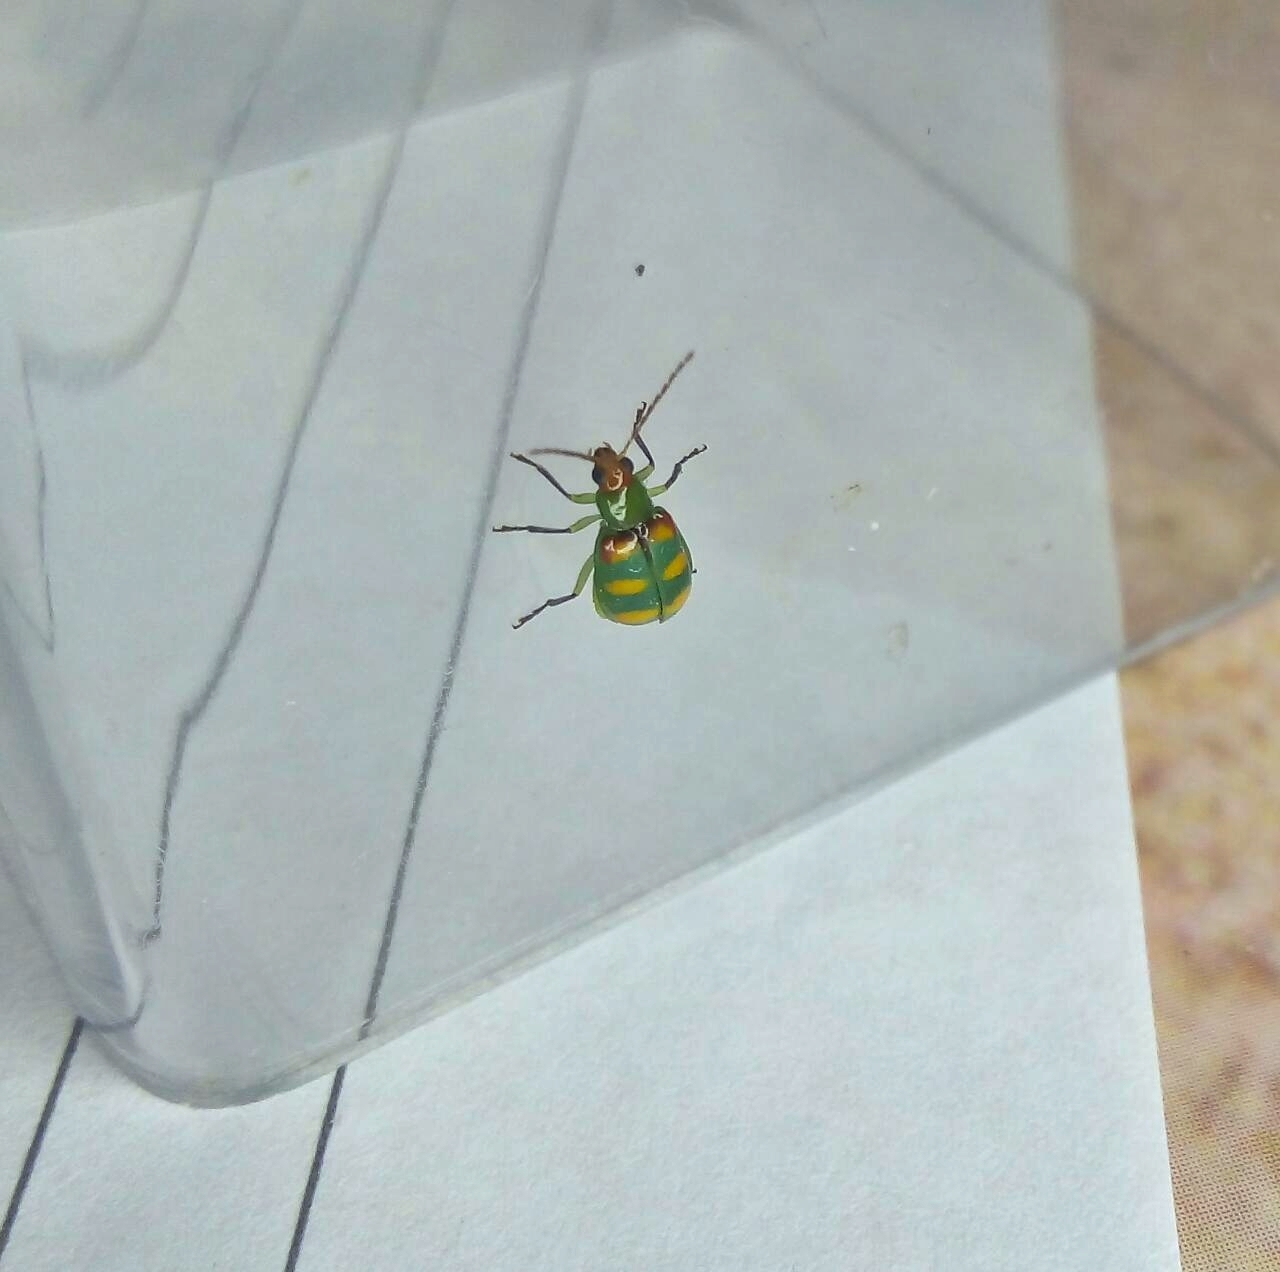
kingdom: Animalia
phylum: Arthropoda
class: Insecta
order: Coleoptera
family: Chrysomelidae
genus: Diabrotica
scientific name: Diabrotica speciosa
